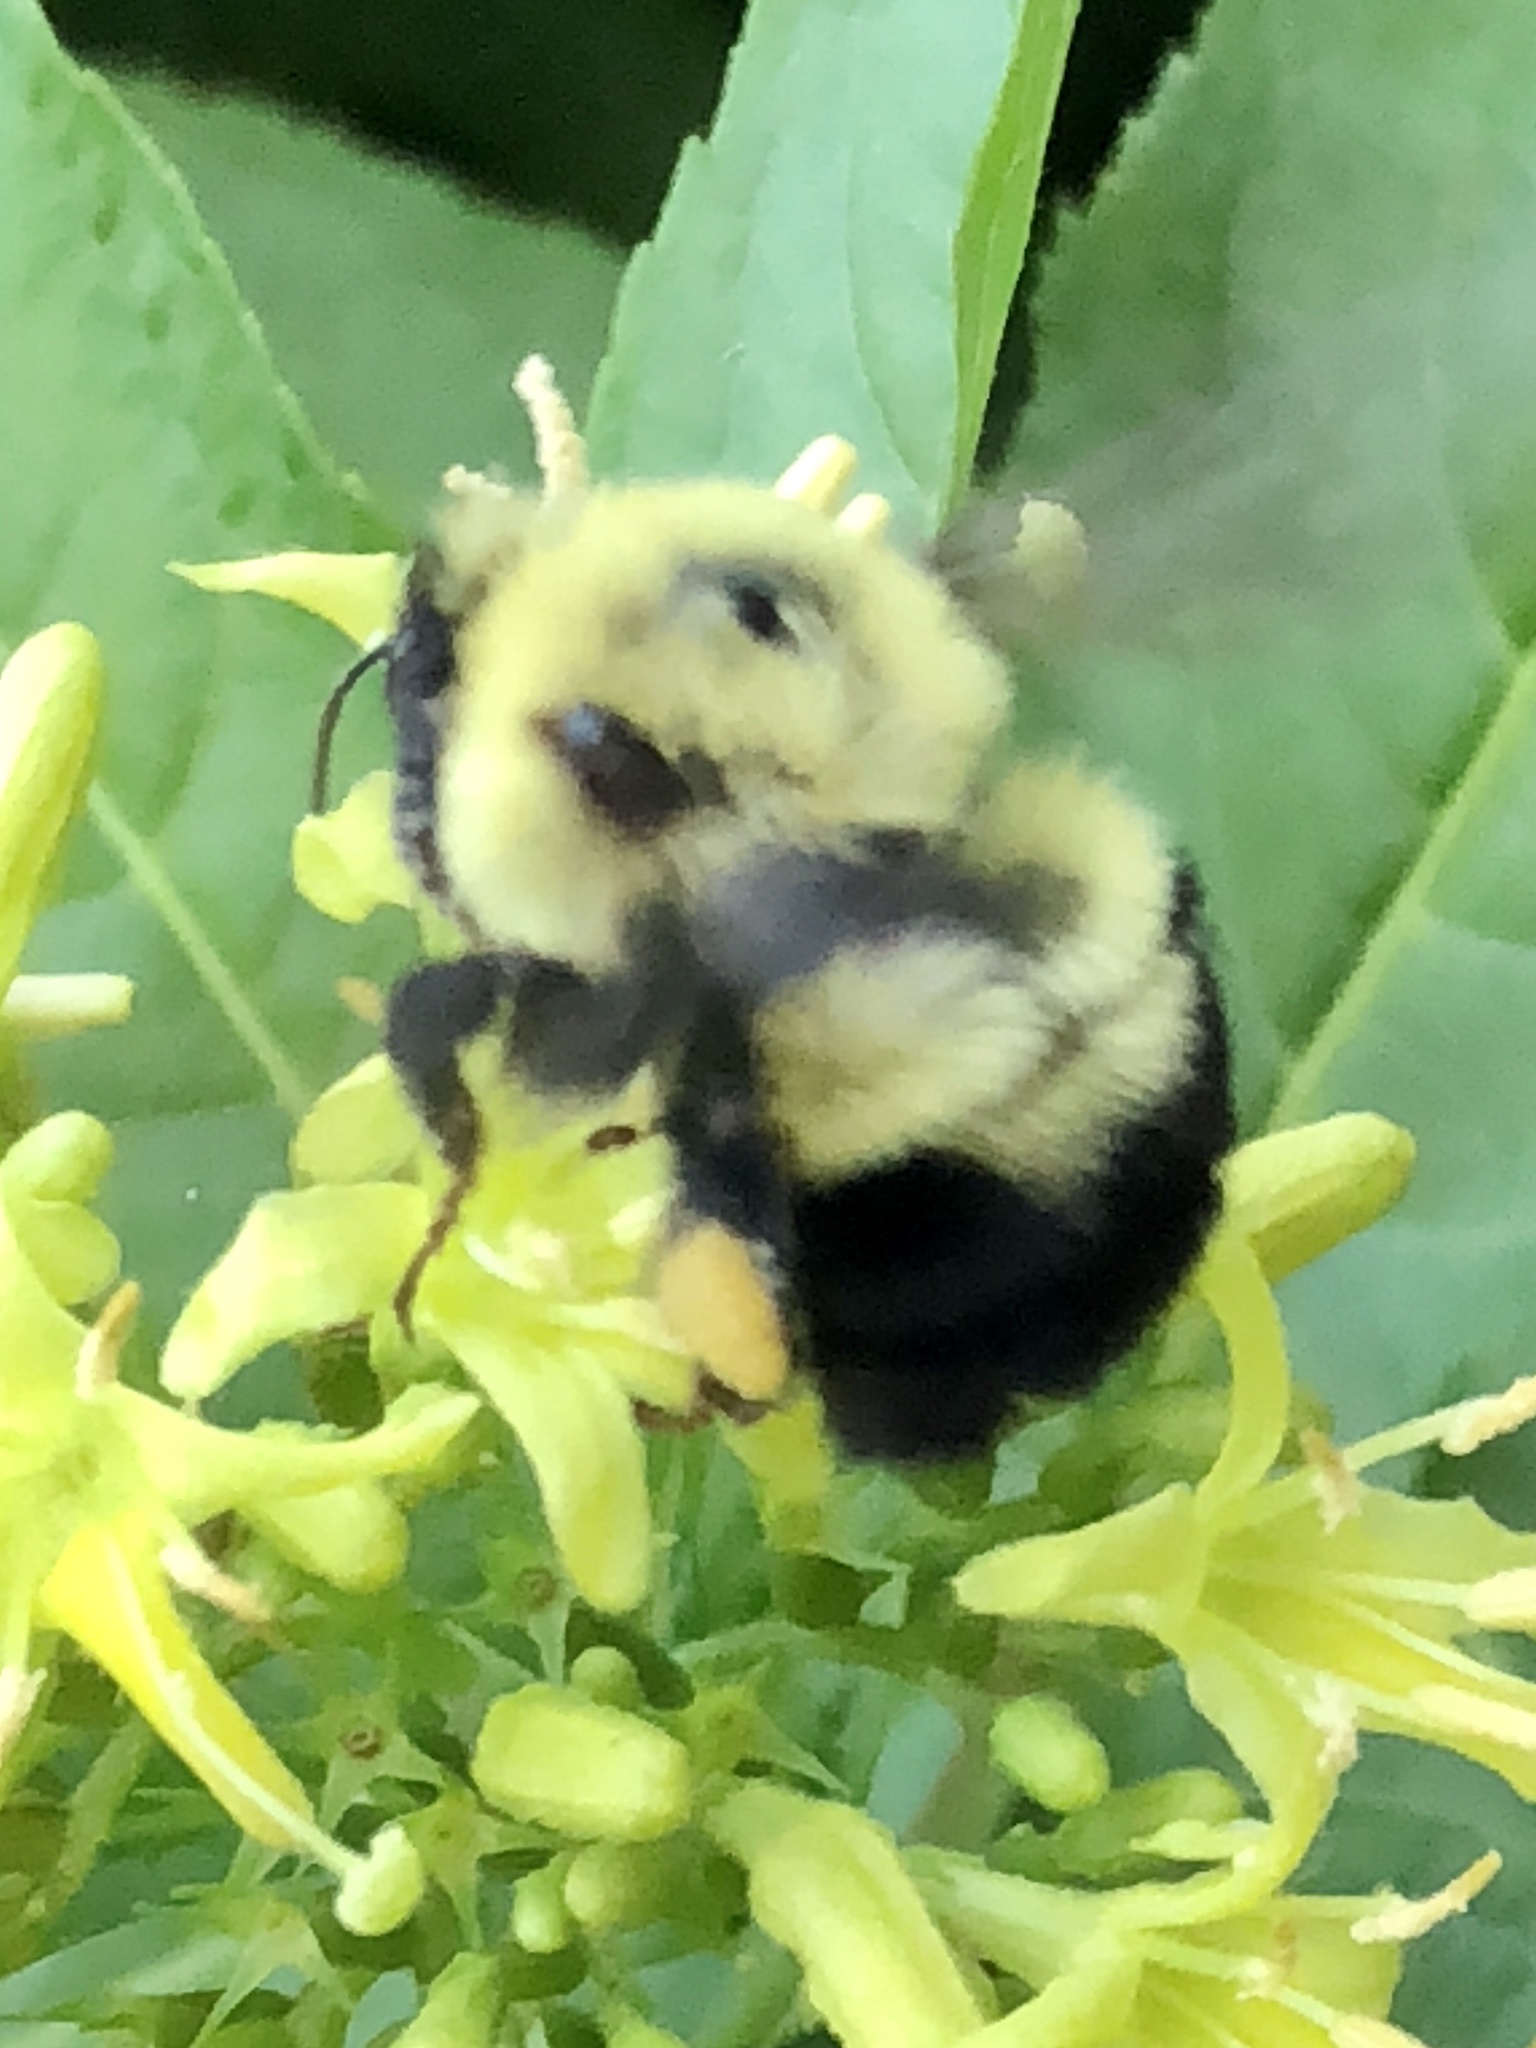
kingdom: Animalia
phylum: Arthropoda
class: Insecta
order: Hymenoptera
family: Apidae
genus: Bombus
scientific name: Bombus bimaculatus
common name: Two-spotted bumble bee
